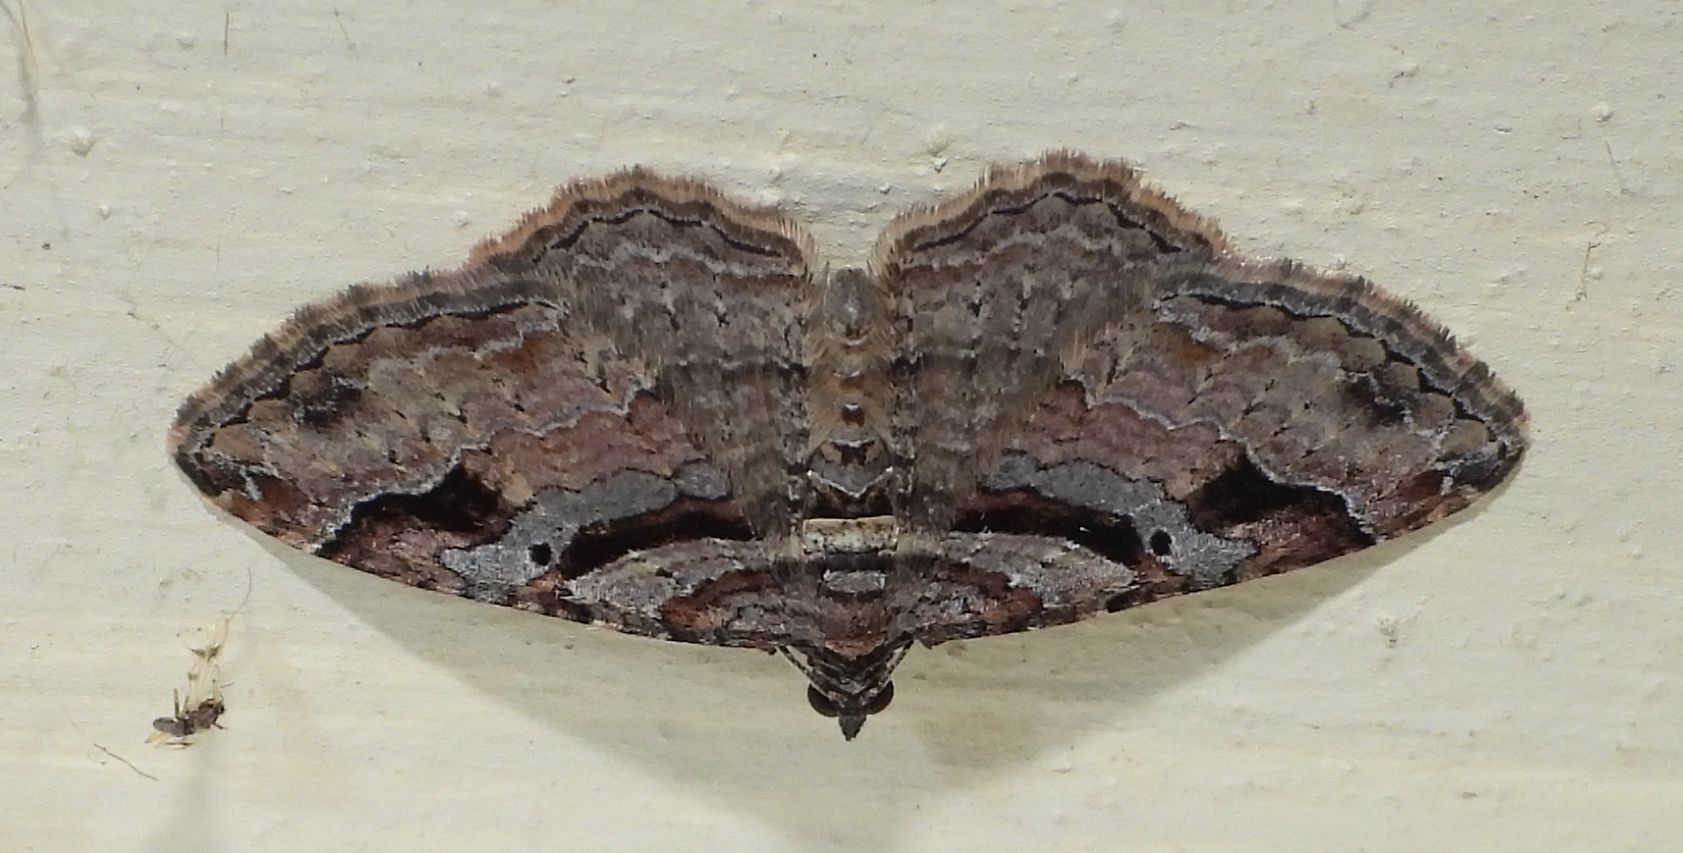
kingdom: Animalia
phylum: Arthropoda
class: Insecta
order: Lepidoptera
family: Geometridae
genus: Costaconvexa
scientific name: Costaconvexa centrostrigaria
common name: Bent-line carpet
